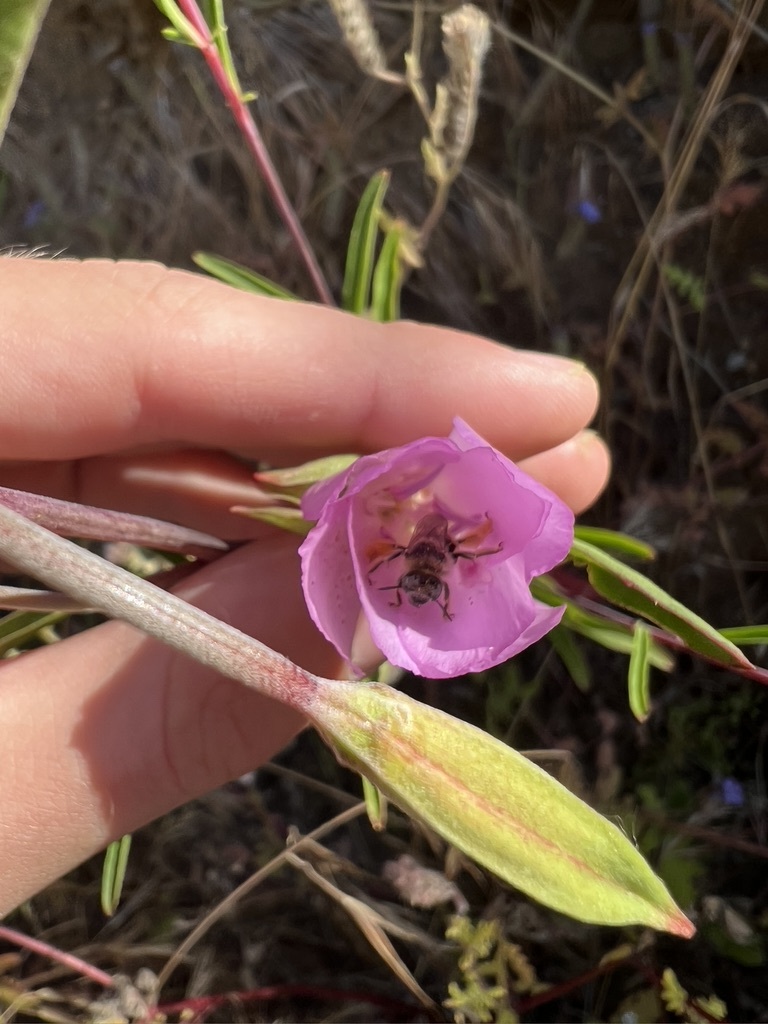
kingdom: Plantae
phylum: Tracheophyta
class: Magnoliopsida
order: Myrtales
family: Onagraceae
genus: Clarkia
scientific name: Clarkia bottae
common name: Punch-bowl godetia
